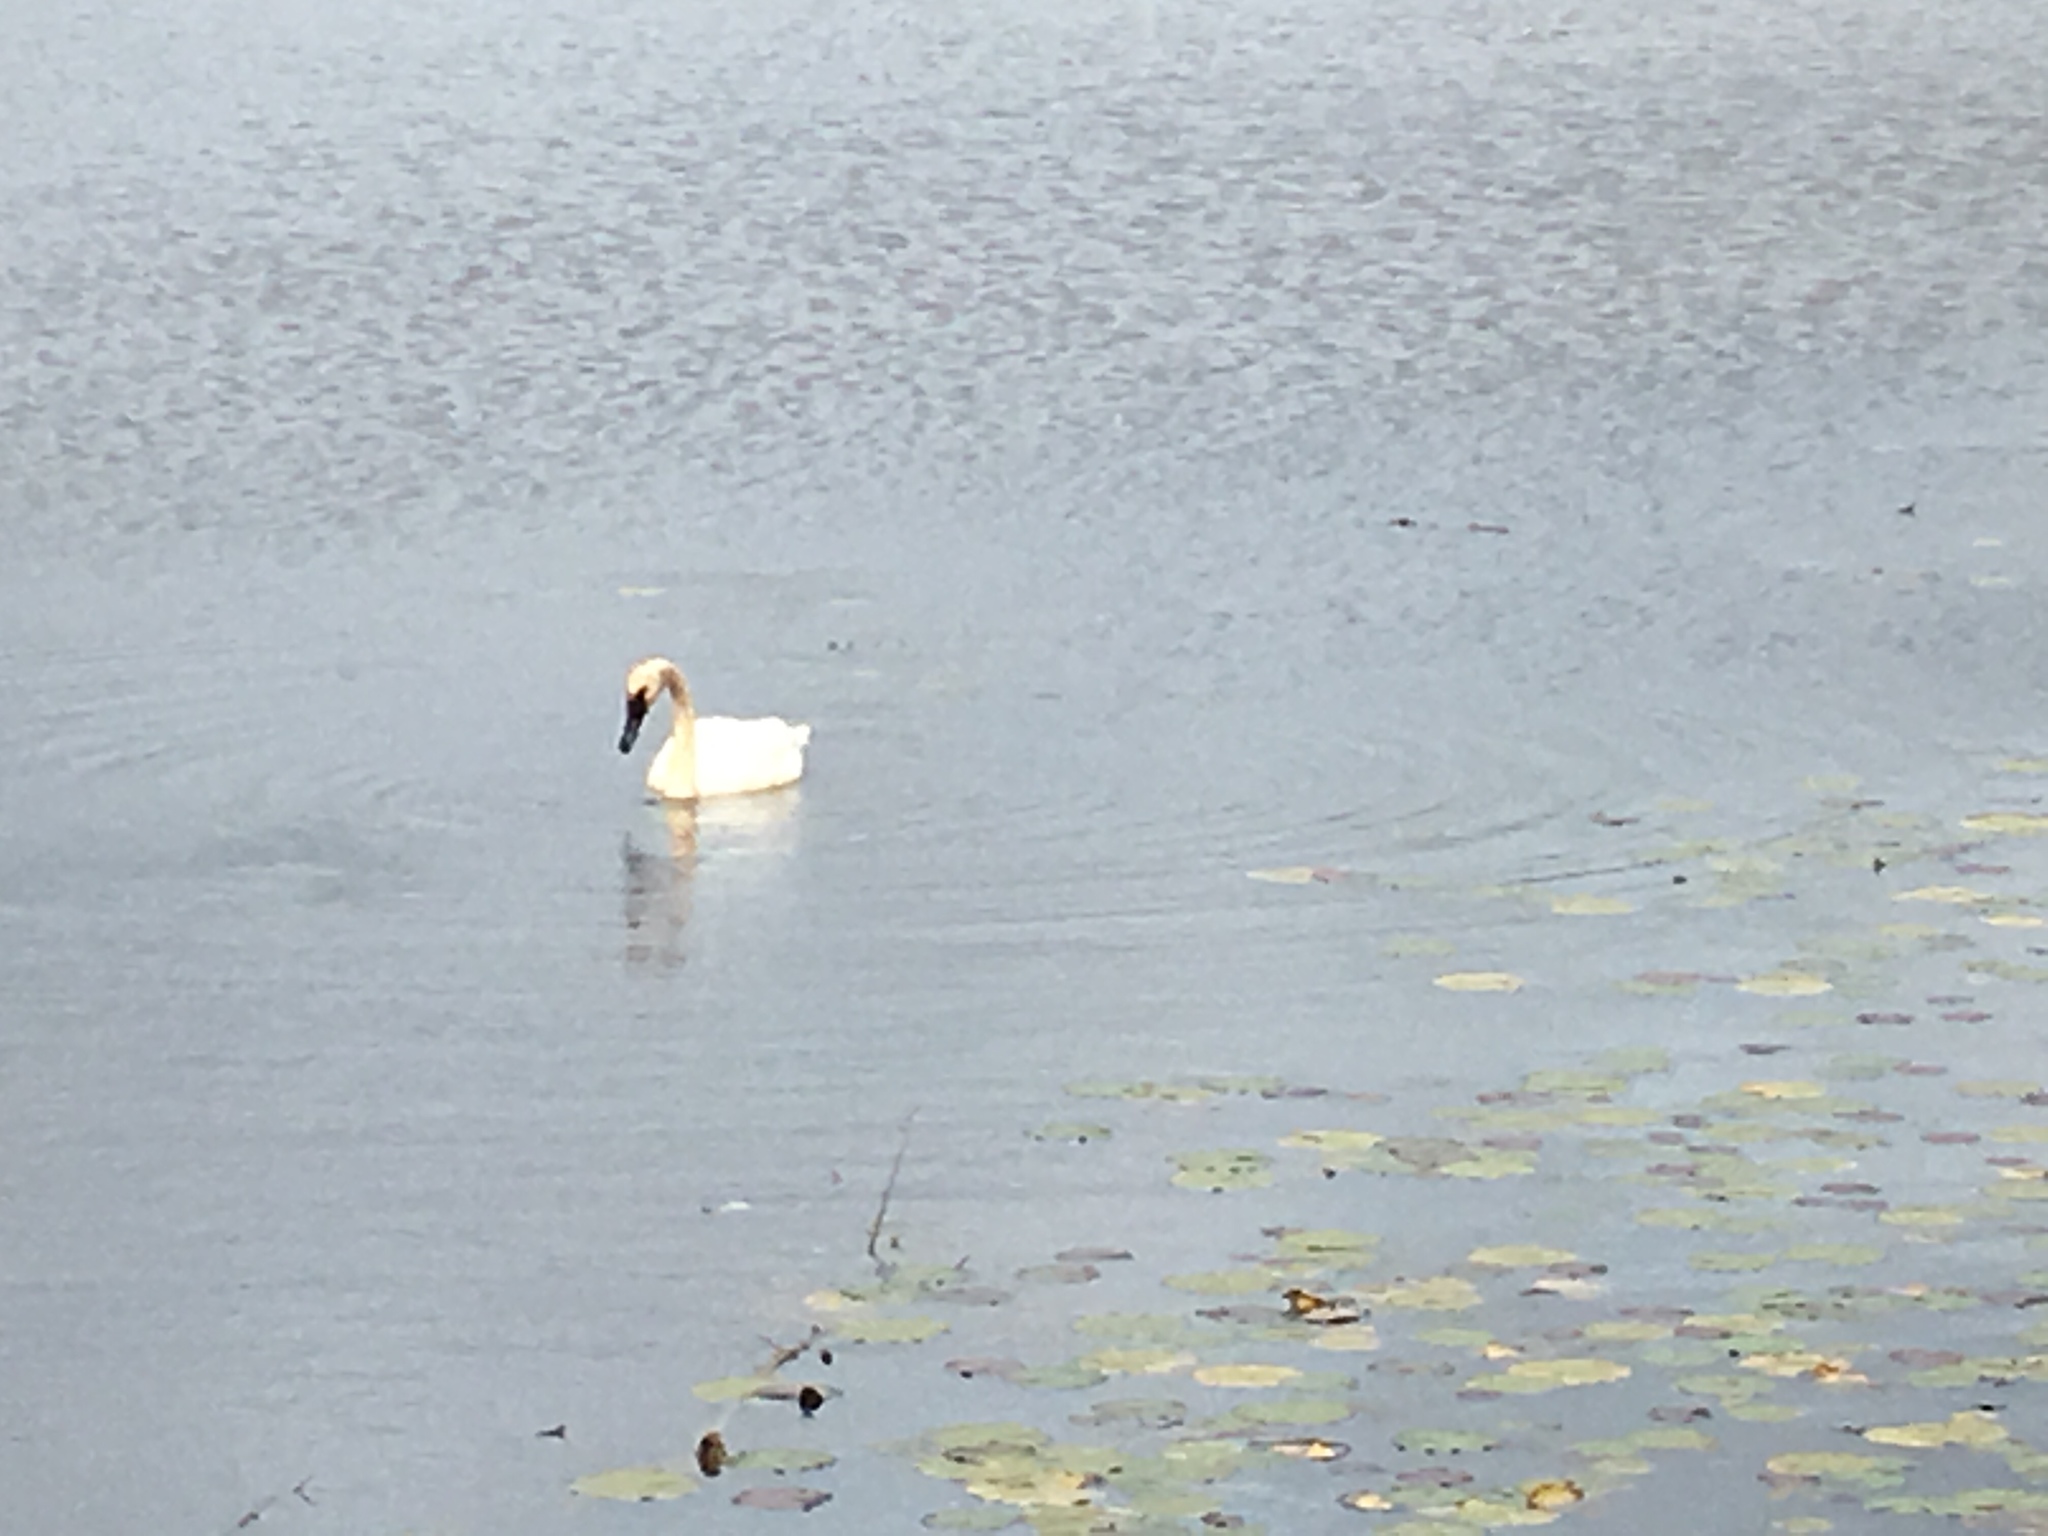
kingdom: Animalia
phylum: Chordata
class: Aves
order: Anseriformes
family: Anatidae
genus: Cygnus
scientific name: Cygnus buccinator
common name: Trumpeter swan
